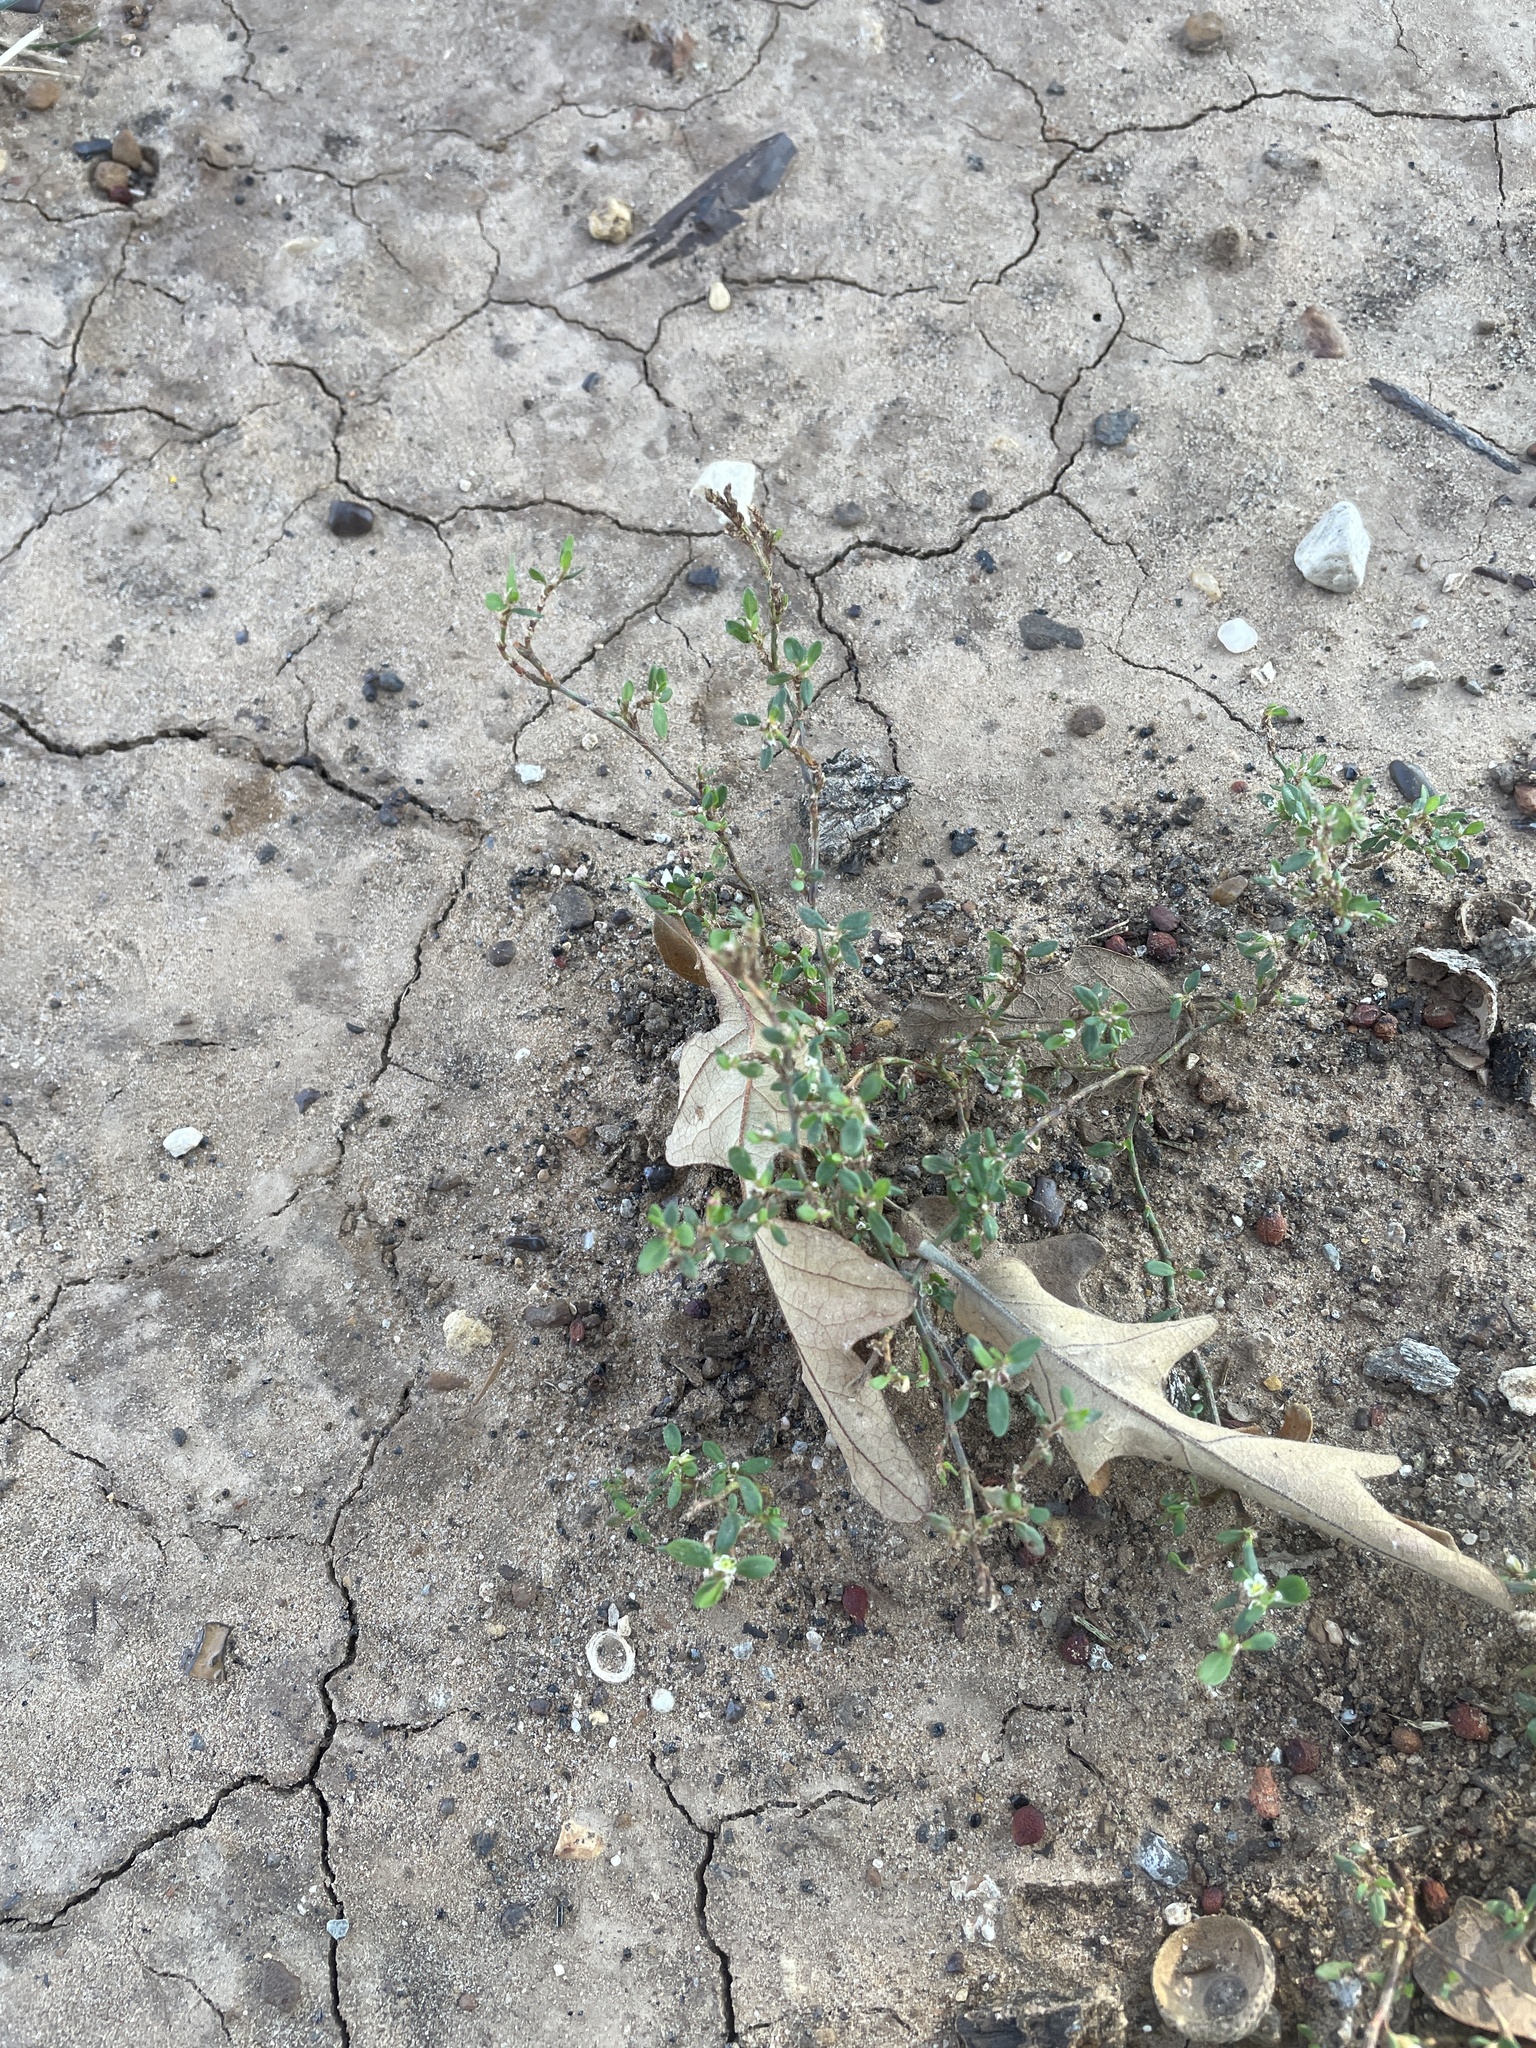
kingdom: Plantae
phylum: Tracheophyta
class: Magnoliopsida
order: Caryophyllales
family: Polygonaceae
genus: Polygonum
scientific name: Polygonum aviculare
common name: Prostrate knotweed
